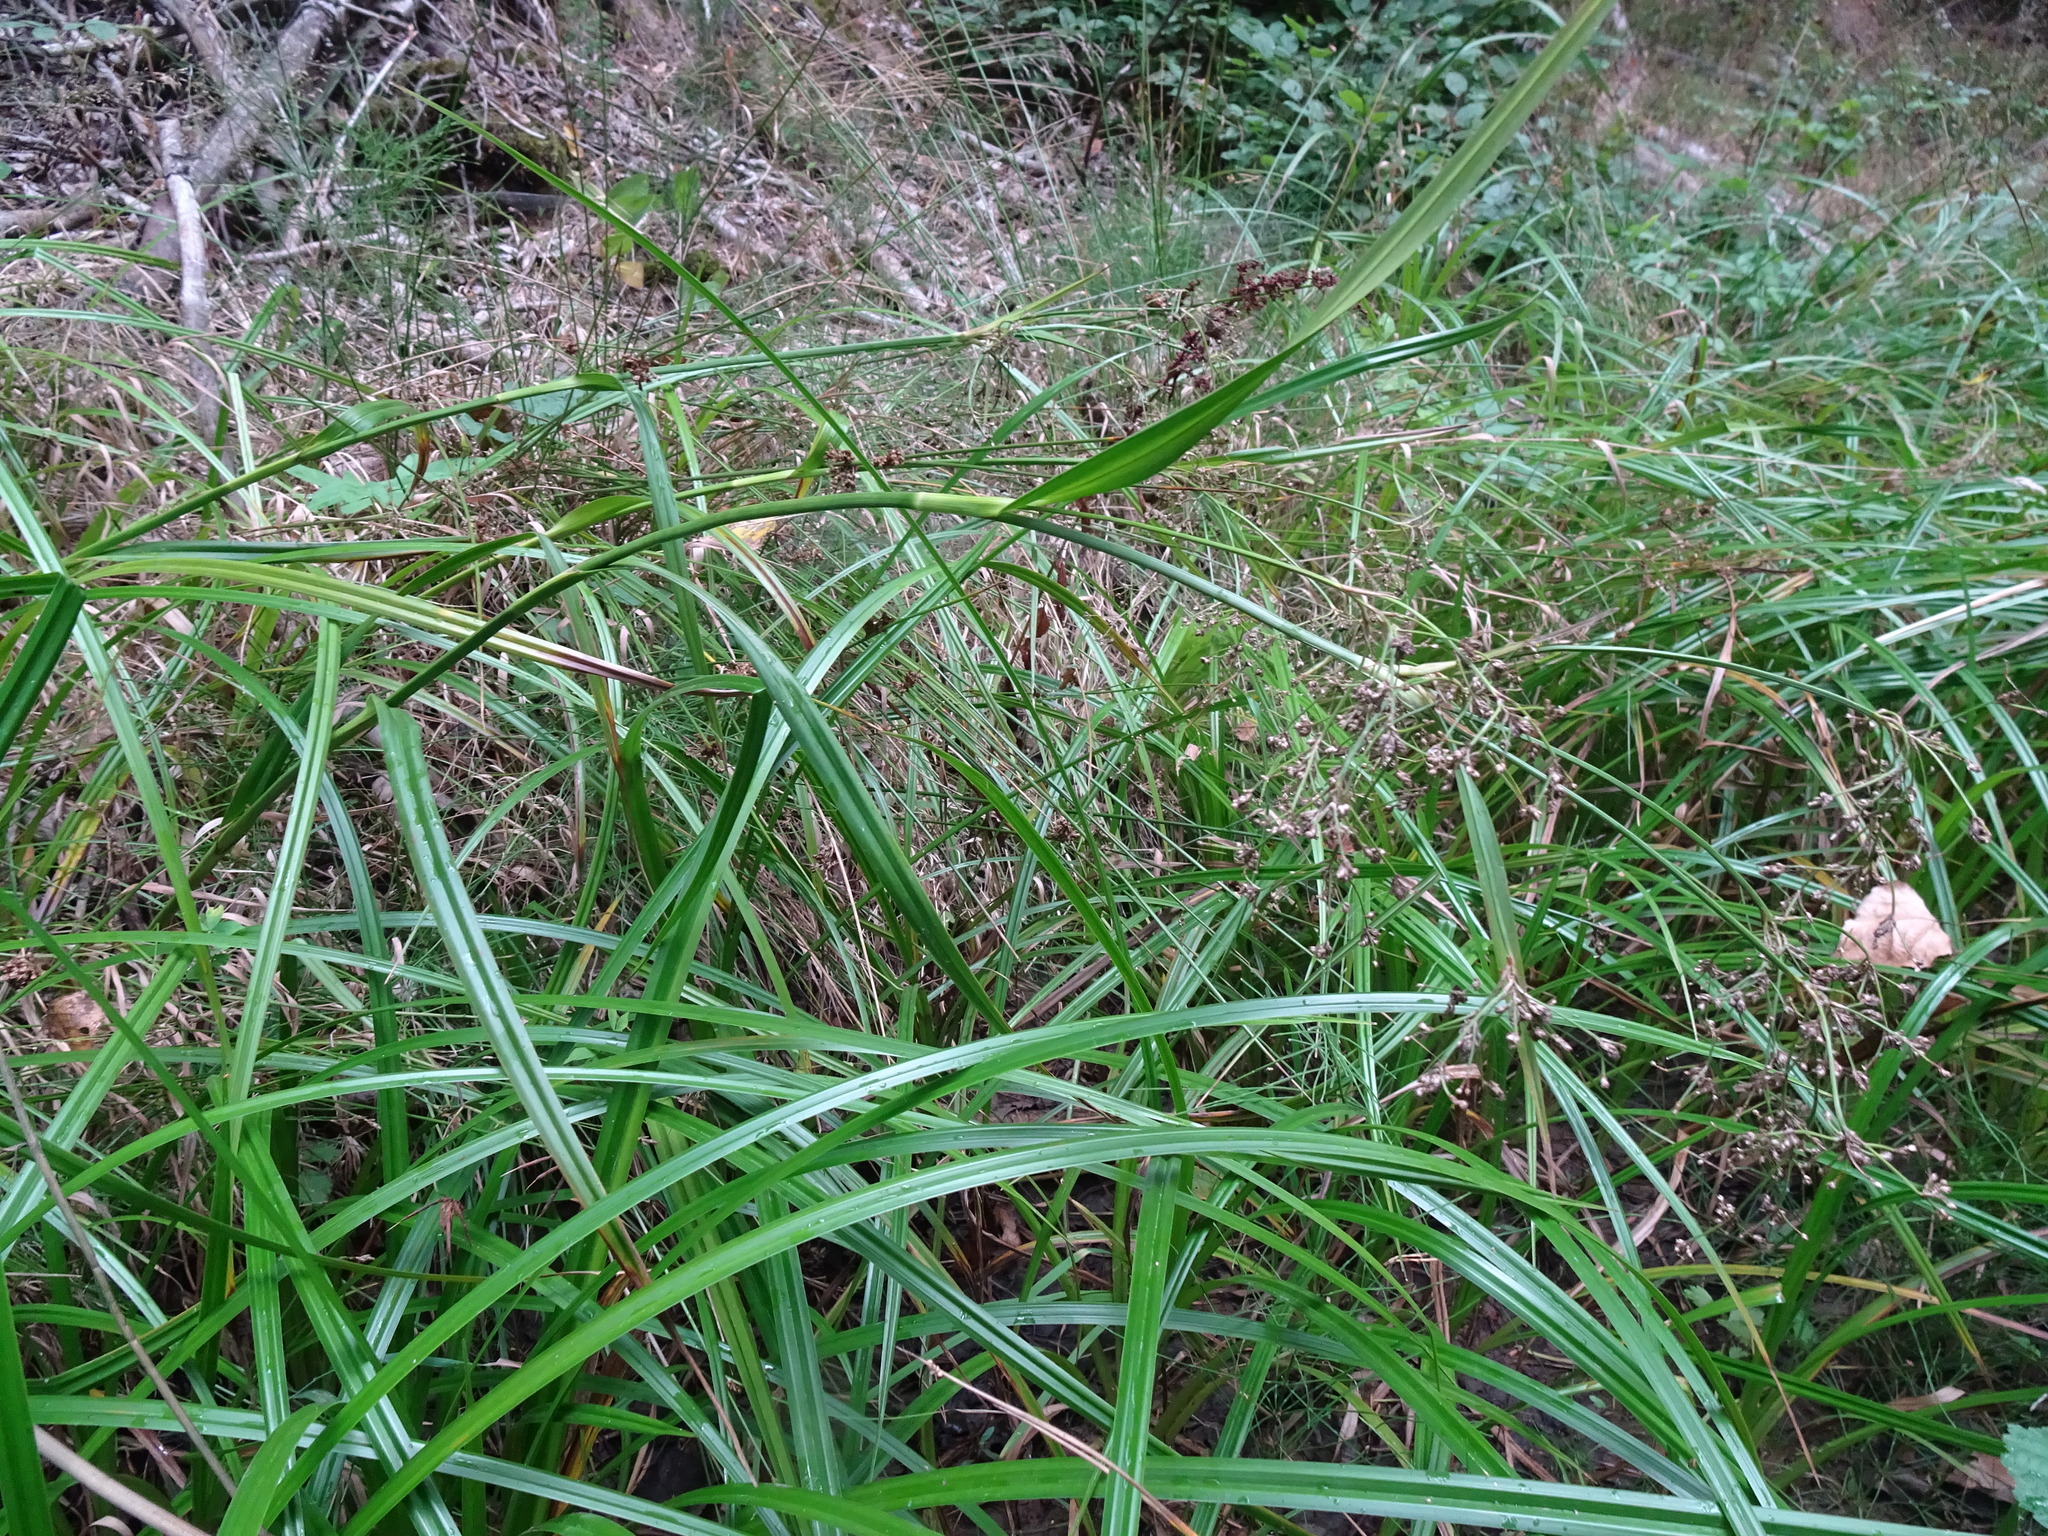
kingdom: Plantae
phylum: Tracheophyta
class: Liliopsida
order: Poales
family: Cyperaceae
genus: Scirpus
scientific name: Scirpus sylvaticus
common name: Wood club-rush
